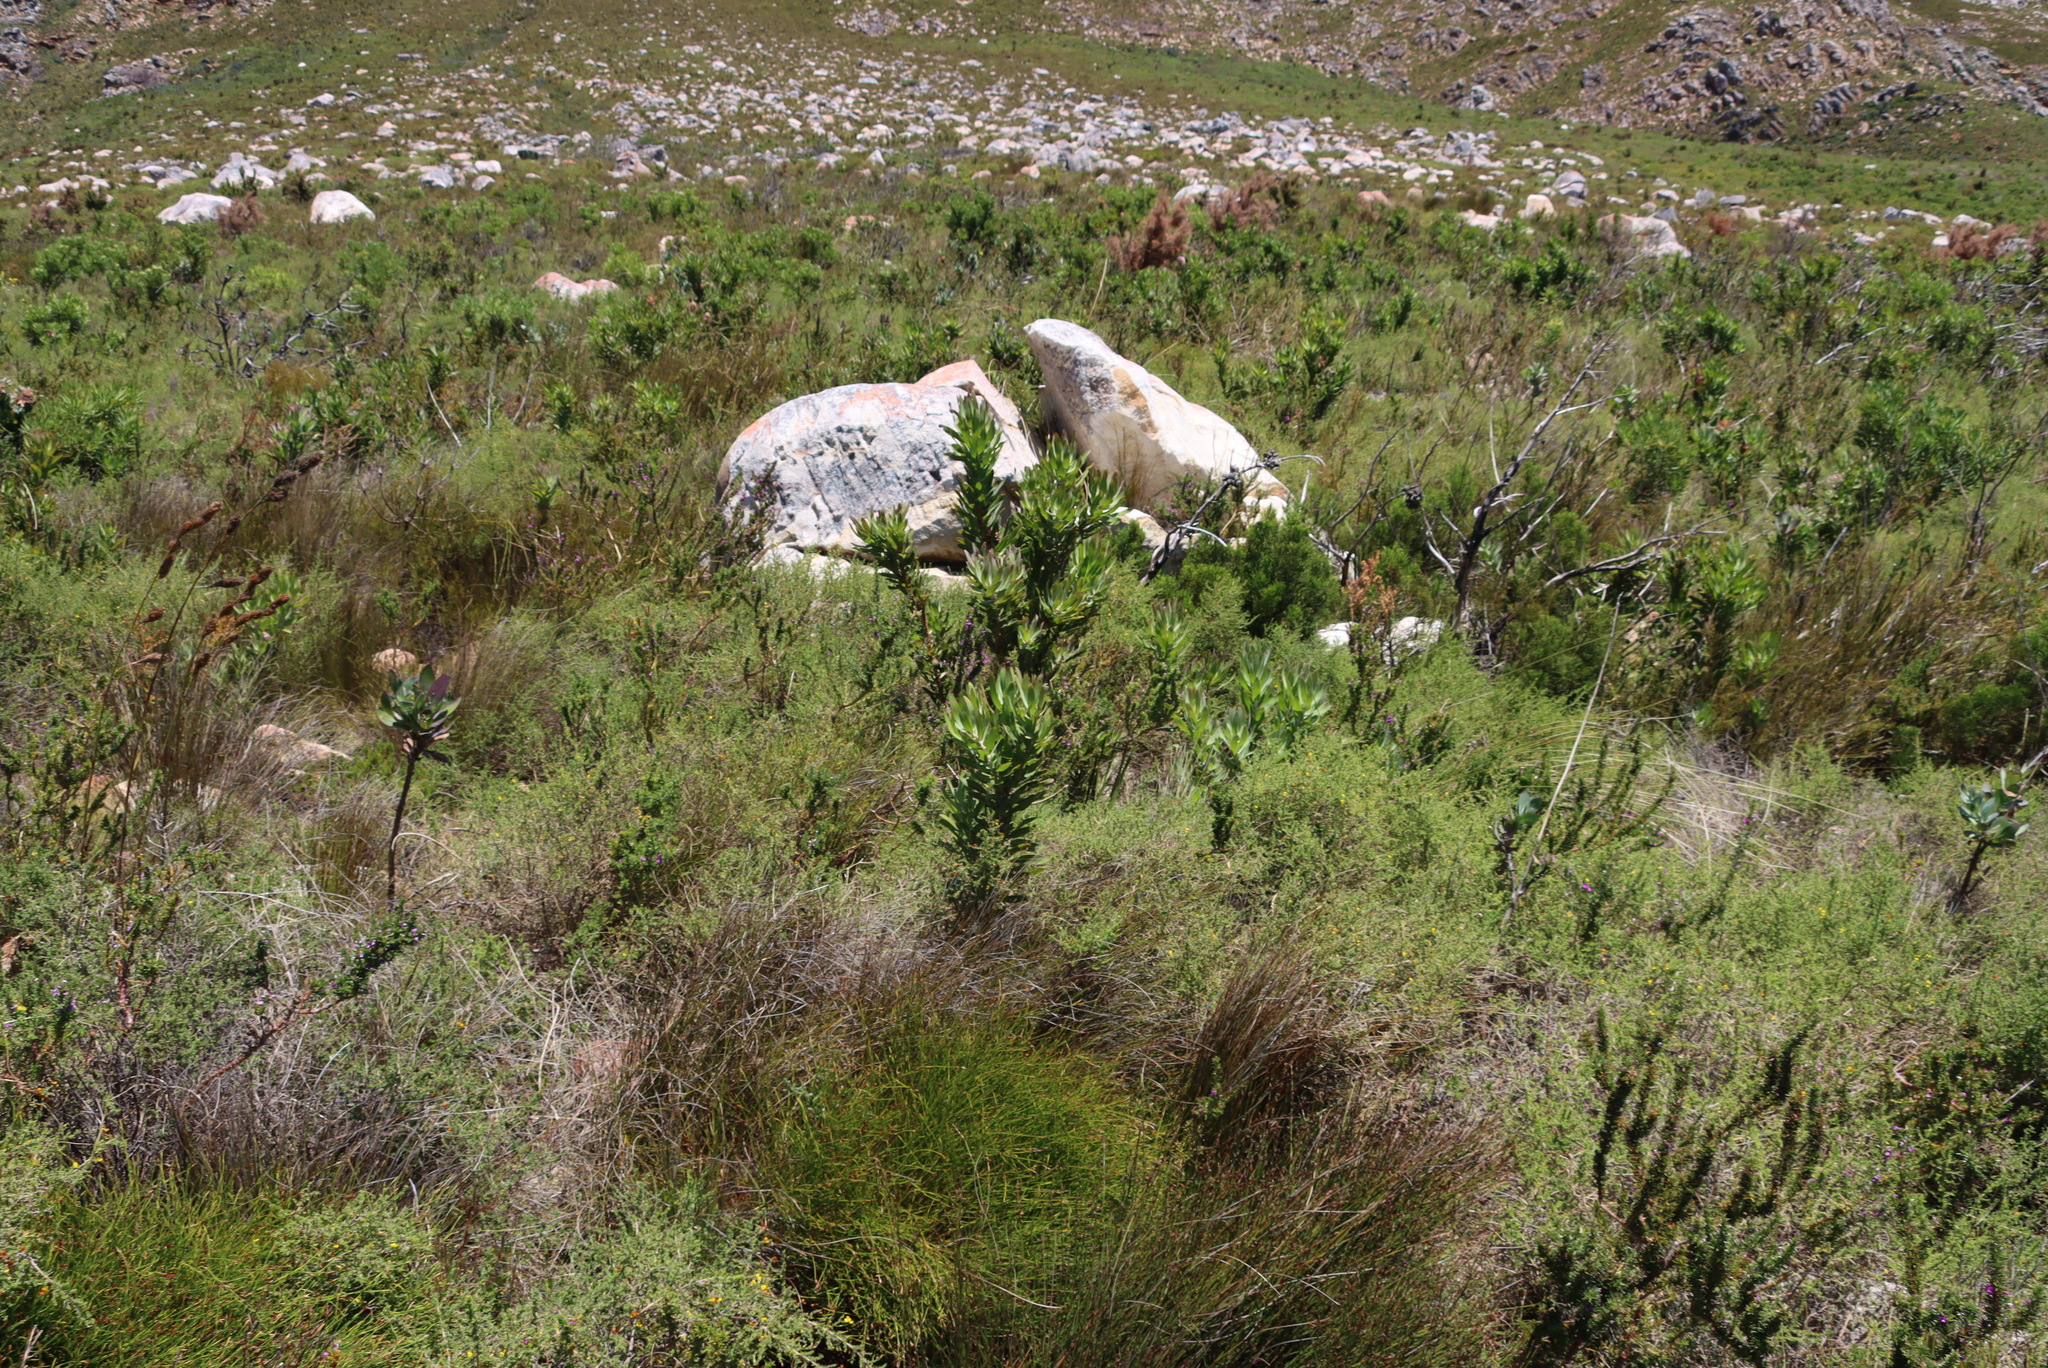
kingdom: Plantae
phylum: Tracheophyta
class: Magnoliopsida
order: Proteales
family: Proteaceae
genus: Protea
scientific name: Protea laurifolia
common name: Grey-leaf sugarbsh
